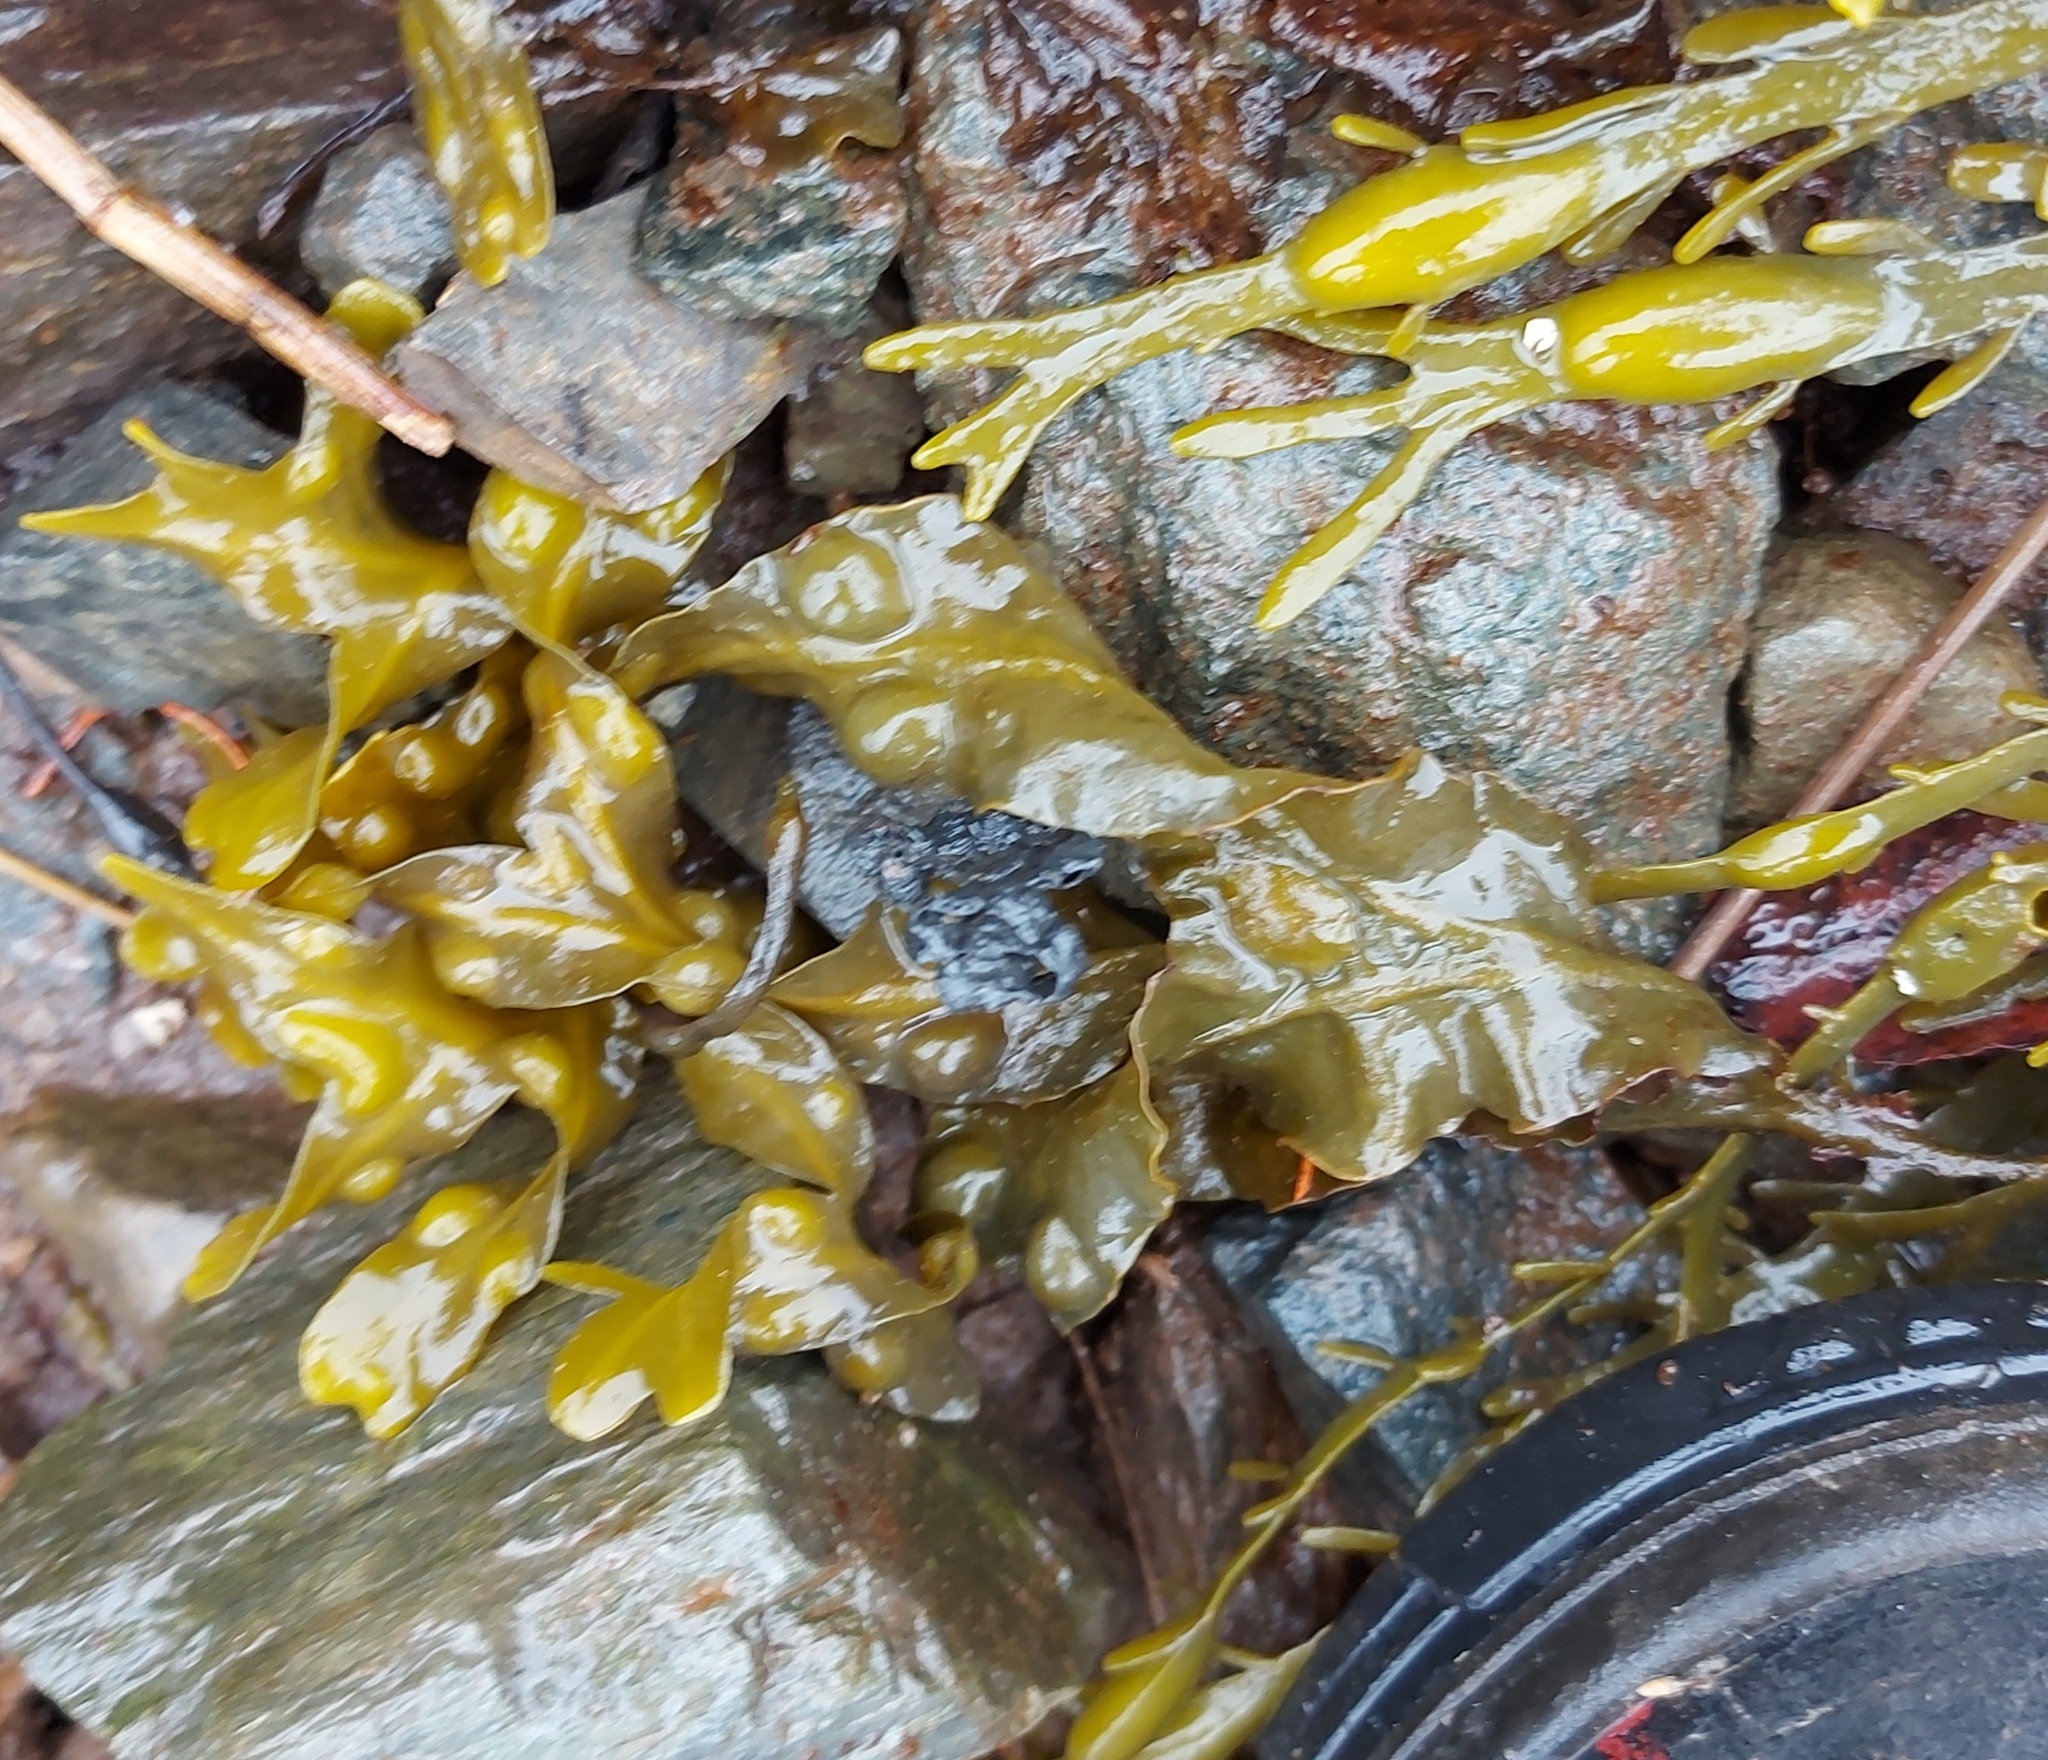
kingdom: Chromista
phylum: Ochrophyta
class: Phaeophyceae
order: Fucales
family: Fucaceae
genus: Fucus
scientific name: Fucus vesiculosus
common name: Bladder wrack
